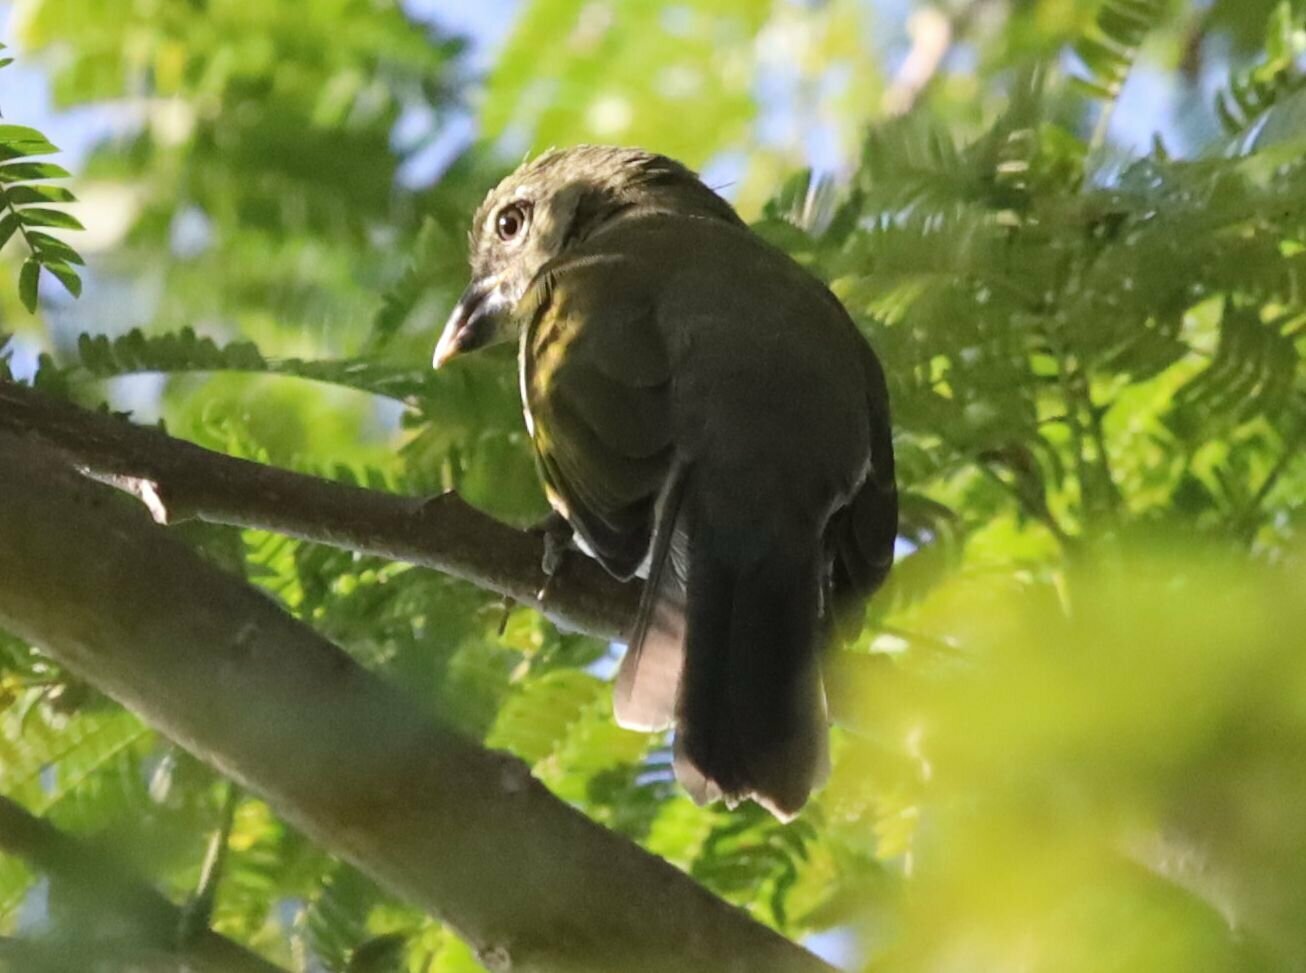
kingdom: Animalia
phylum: Chordata
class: Aves
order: Passeriformes
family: Thraupidae
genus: Saltator
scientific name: Saltator striatipectus
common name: Streaked saltator
